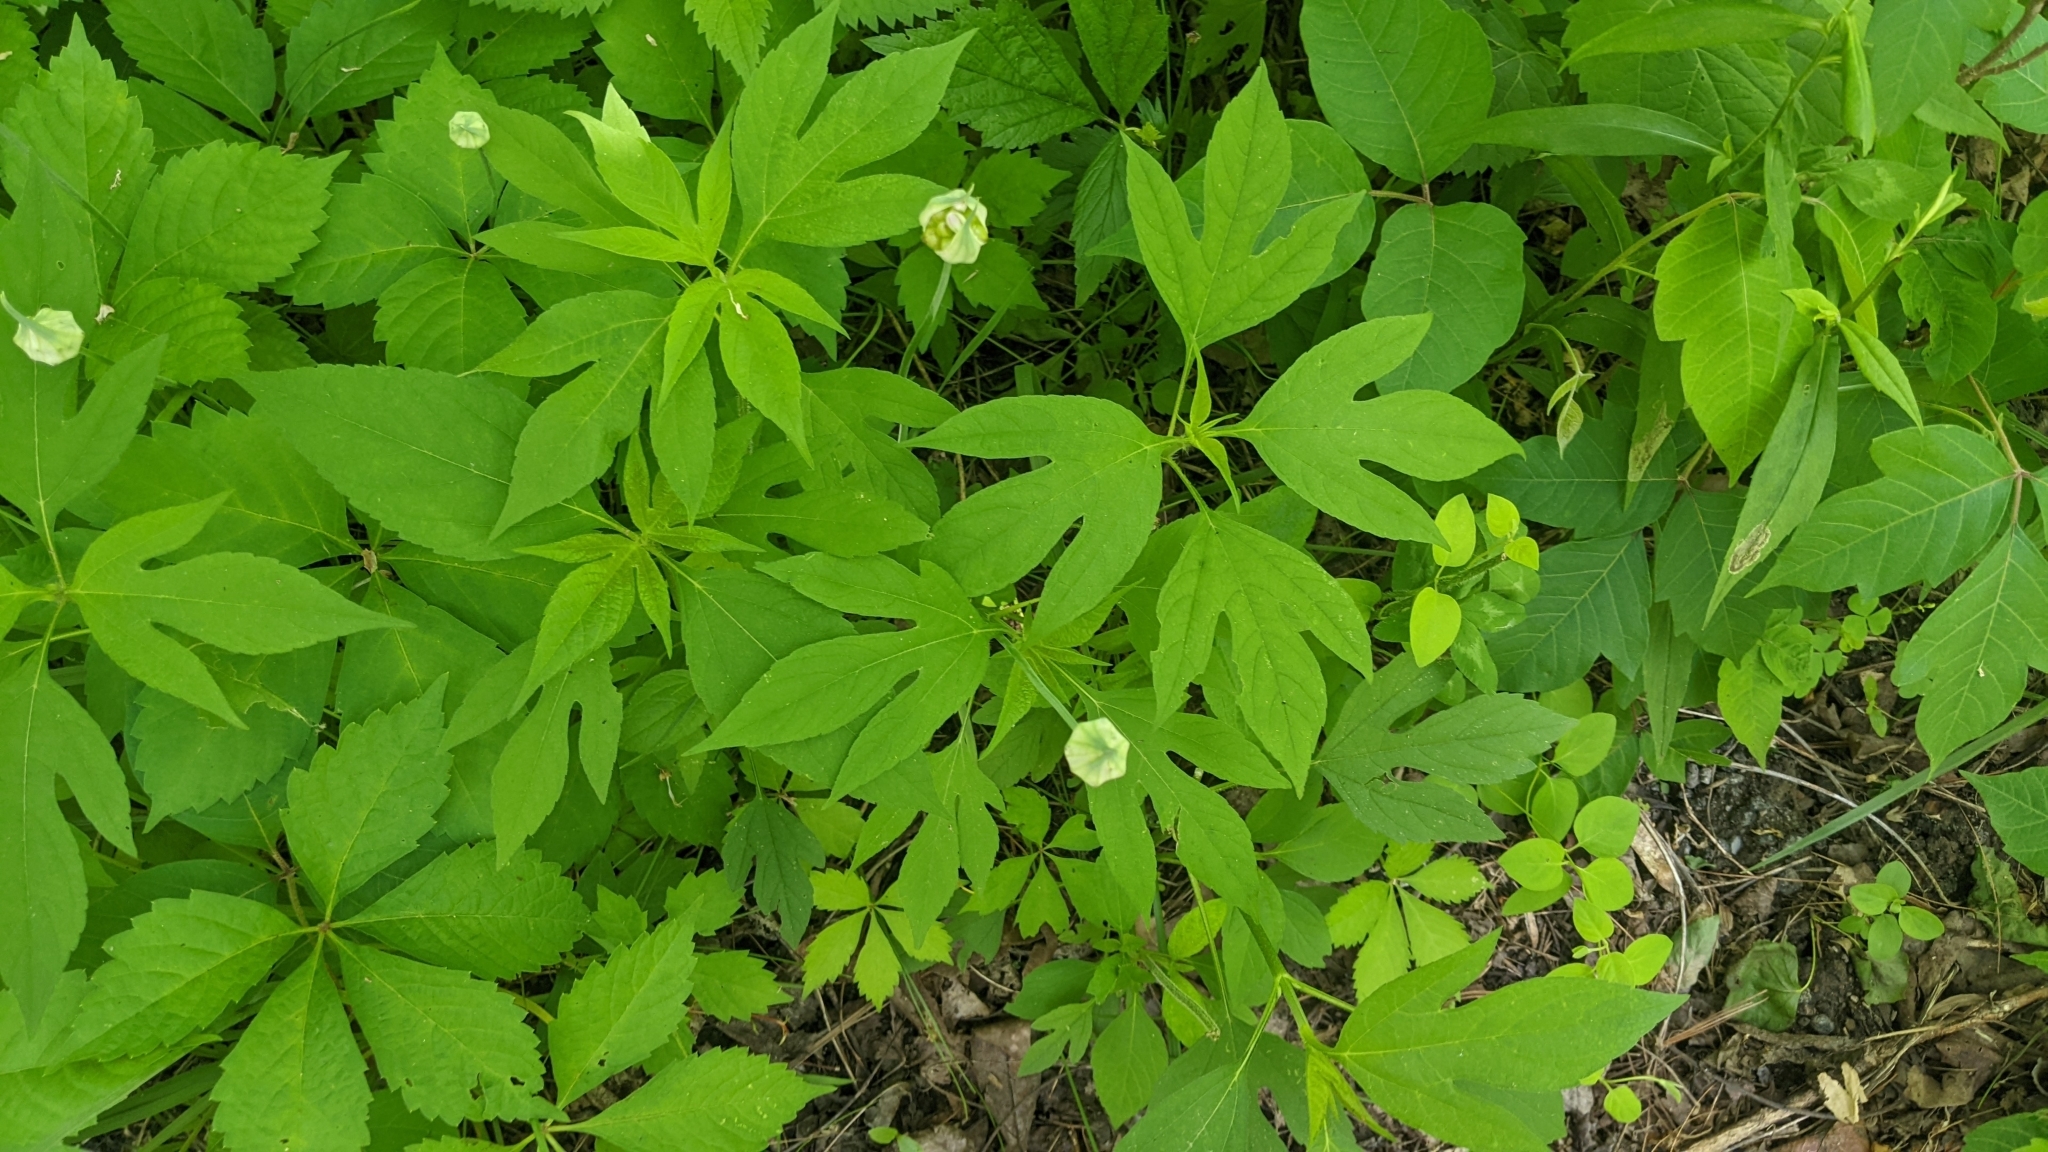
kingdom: Plantae
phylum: Tracheophyta
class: Magnoliopsida
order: Asterales
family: Asteraceae
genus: Ambrosia
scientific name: Ambrosia trifida
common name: Giant ragweed
